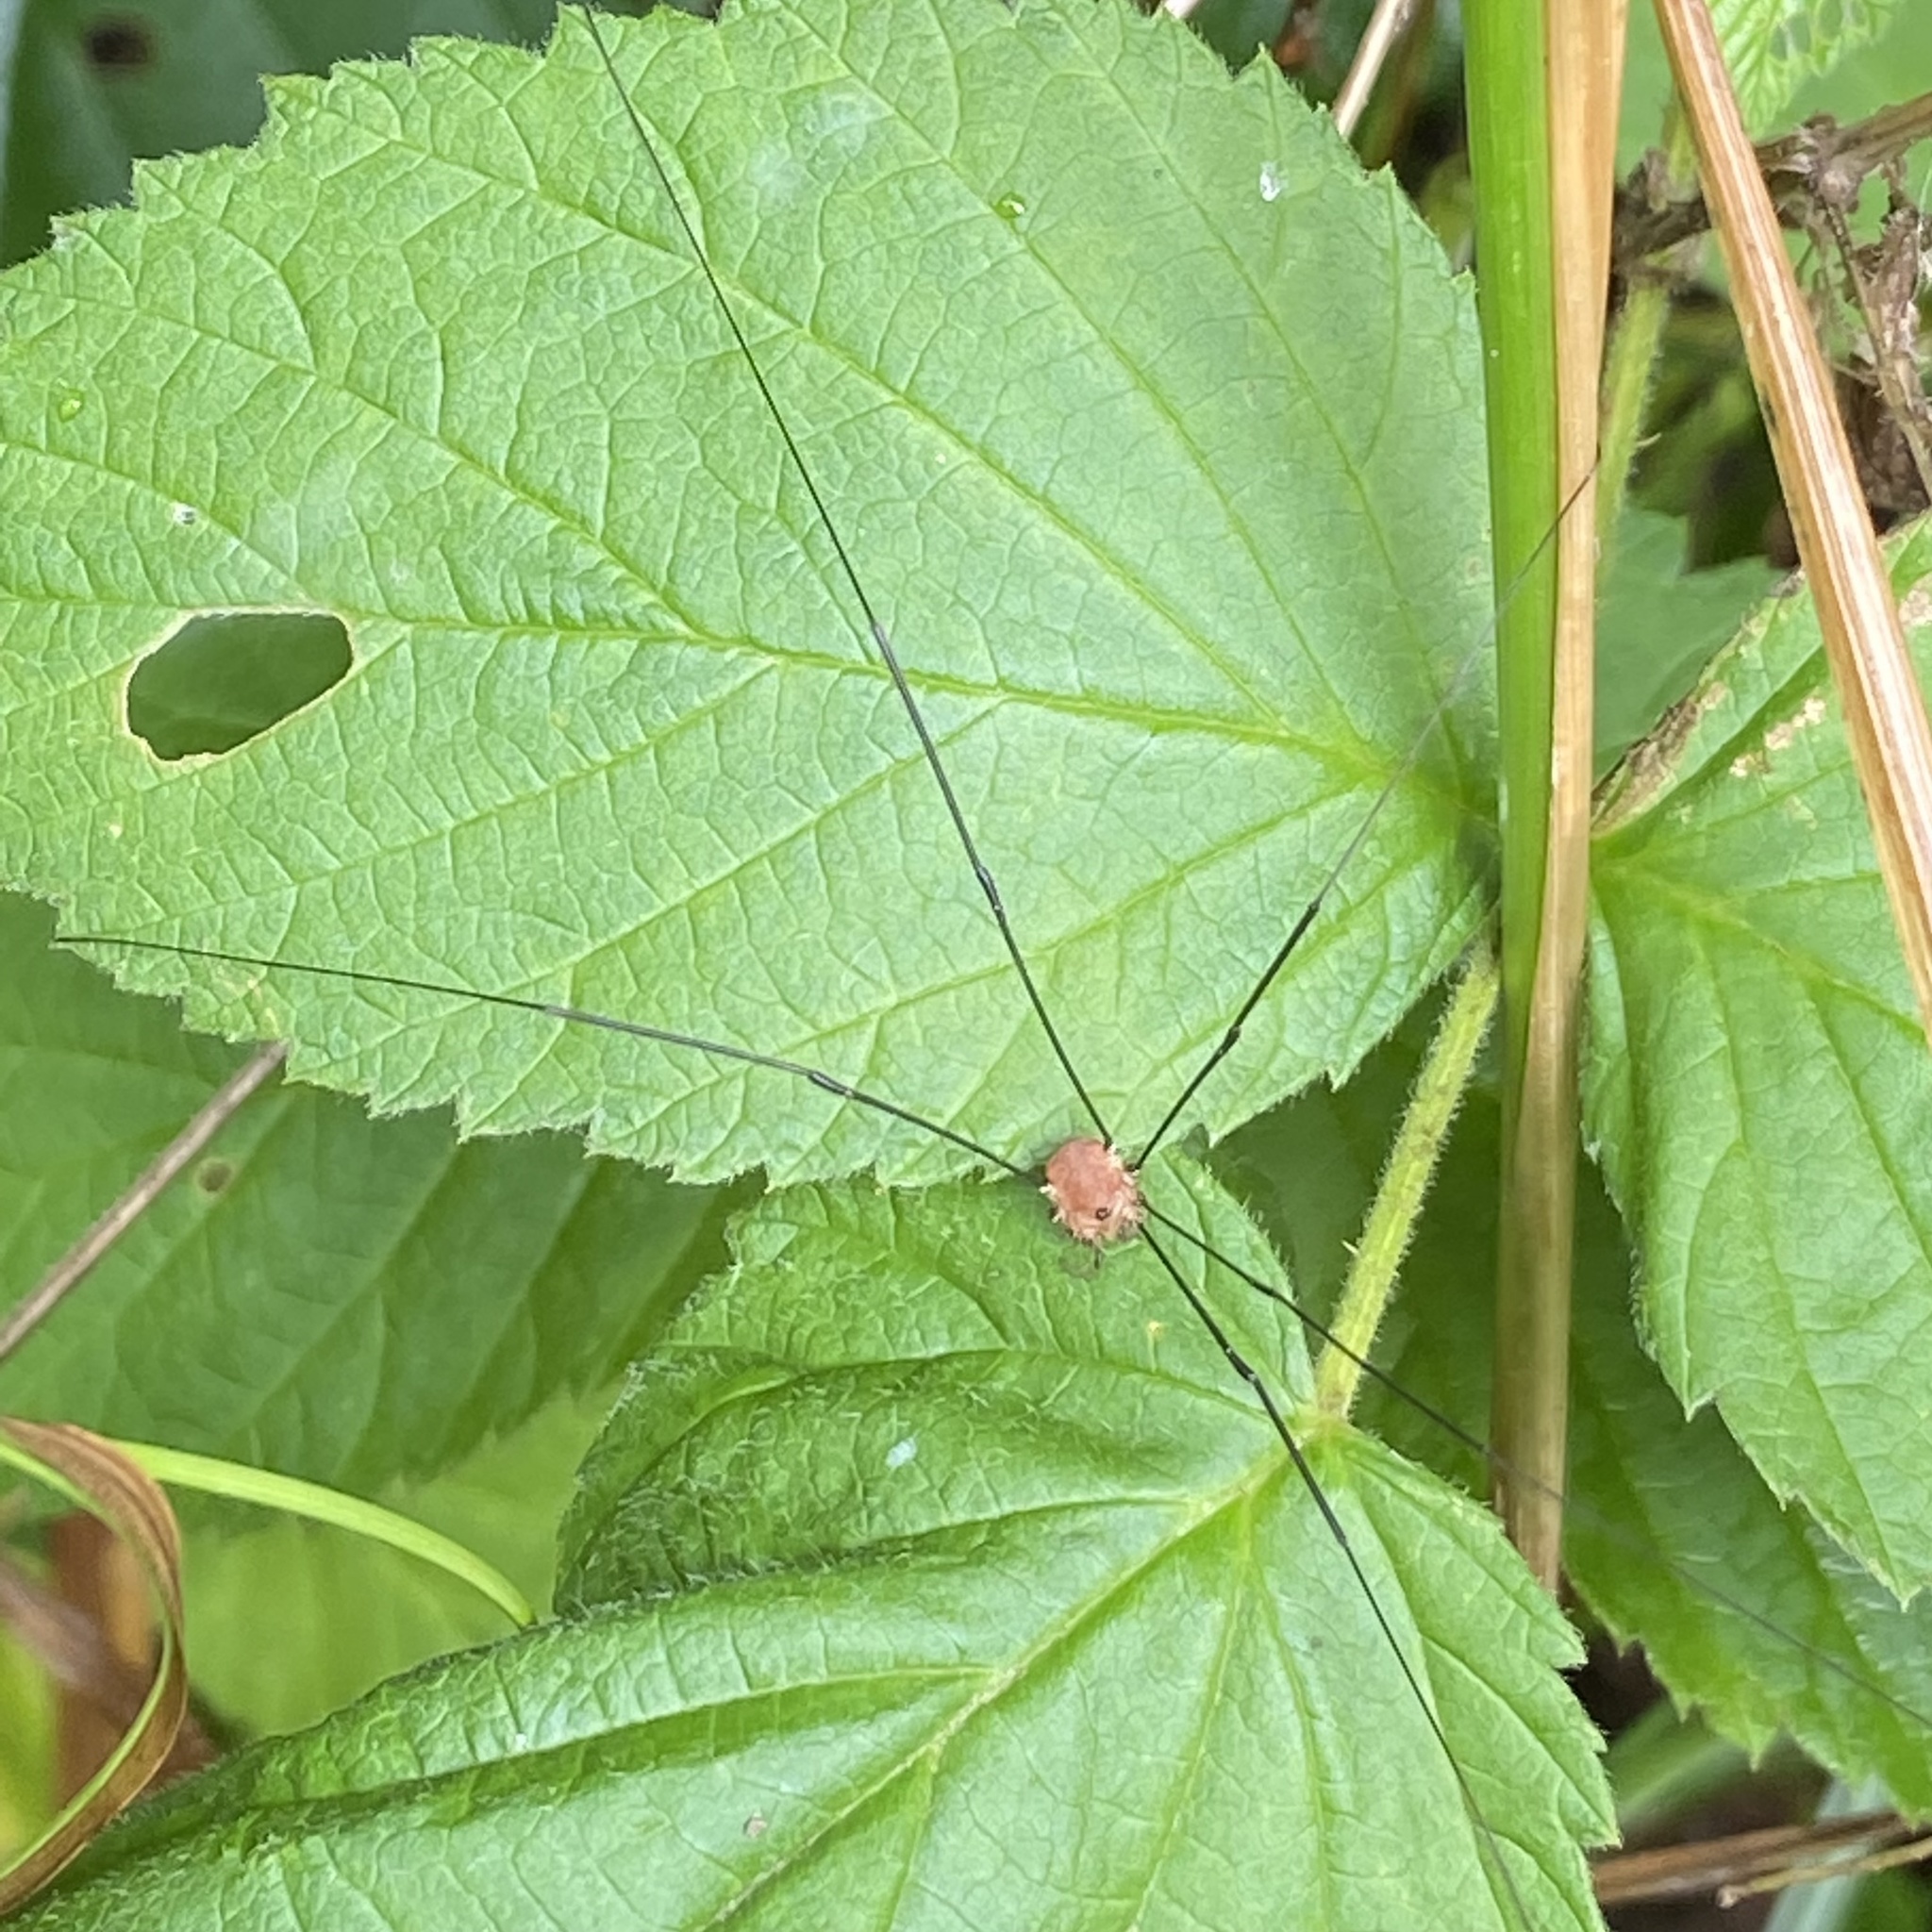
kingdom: Animalia
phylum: Arthropoda
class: Arachnida
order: Opiliones
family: Sclerosomatidae
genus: Leiobunum
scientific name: Leiobunum rotundum
